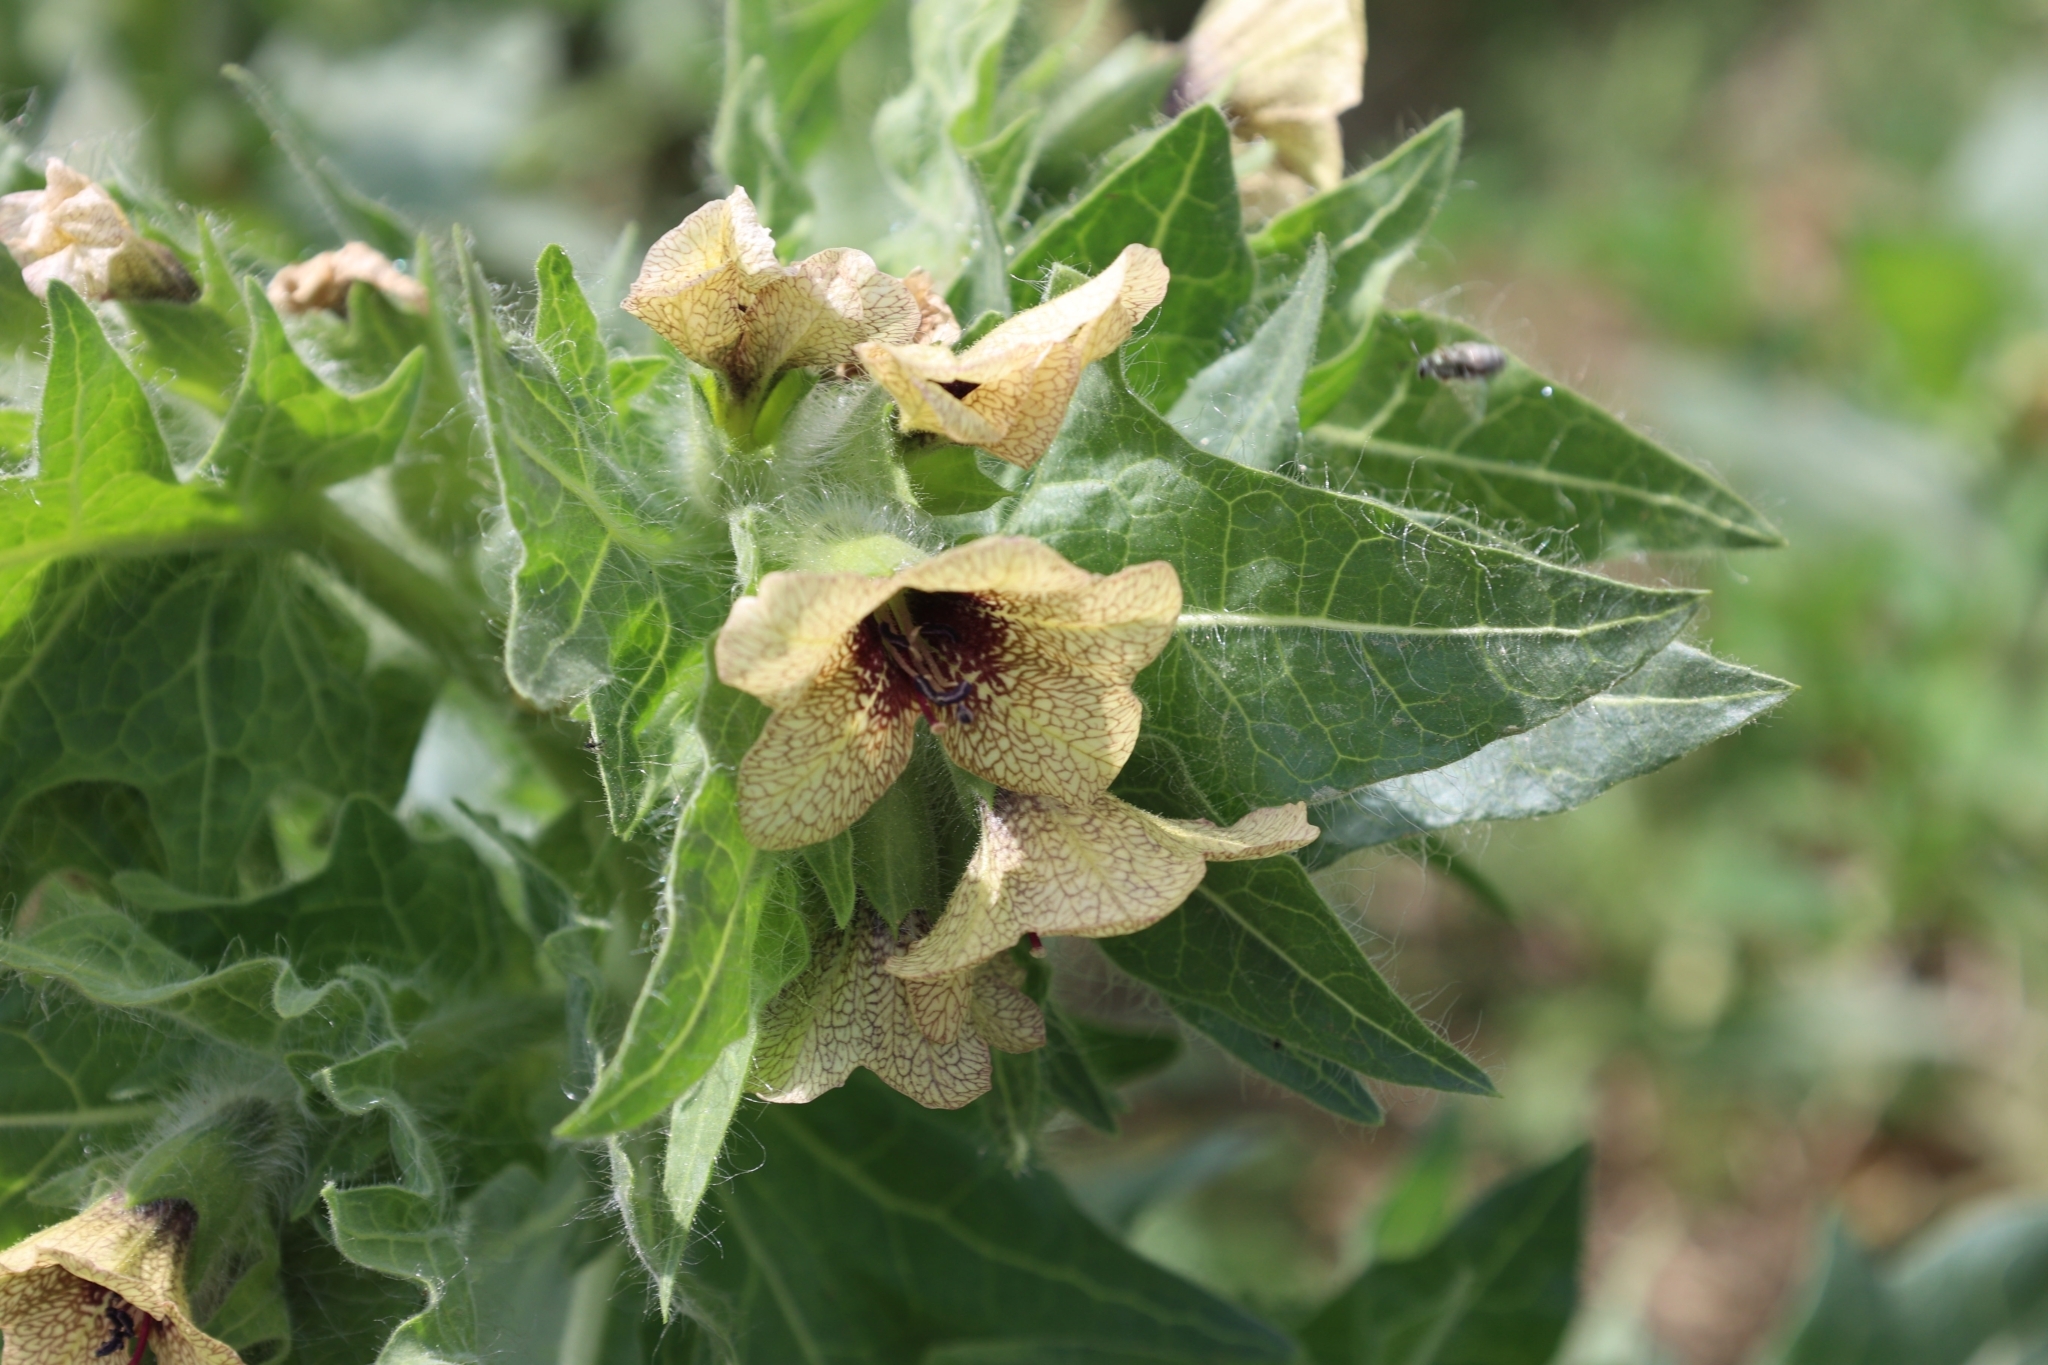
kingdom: Plantae
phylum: Tracheophyta
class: Magnoliopsida
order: Solanales
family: Solanaceae
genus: Hyoscyamus
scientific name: Hyoscyamus niger
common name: Henbane
